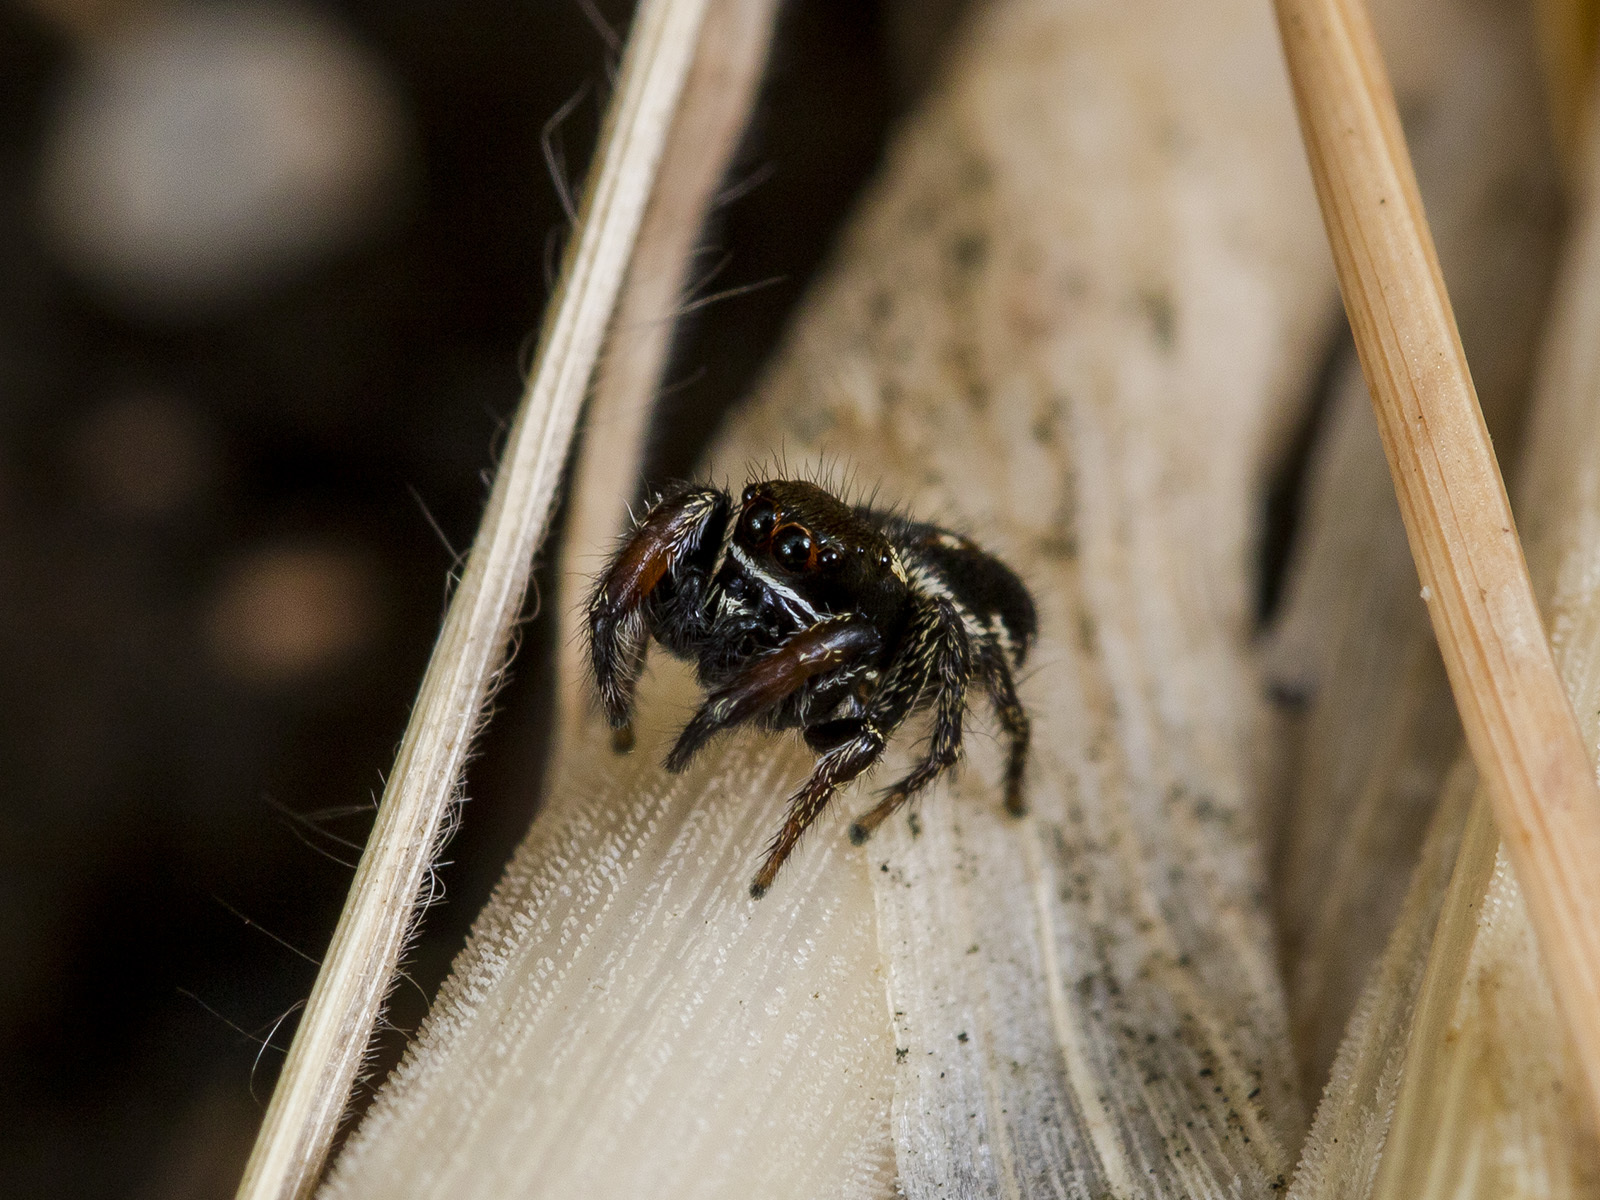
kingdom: Animalia
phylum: Arthropoda
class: Arachnida
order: Araneae
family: Salticidae
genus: Pellenes
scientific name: Pellenes allegrii
